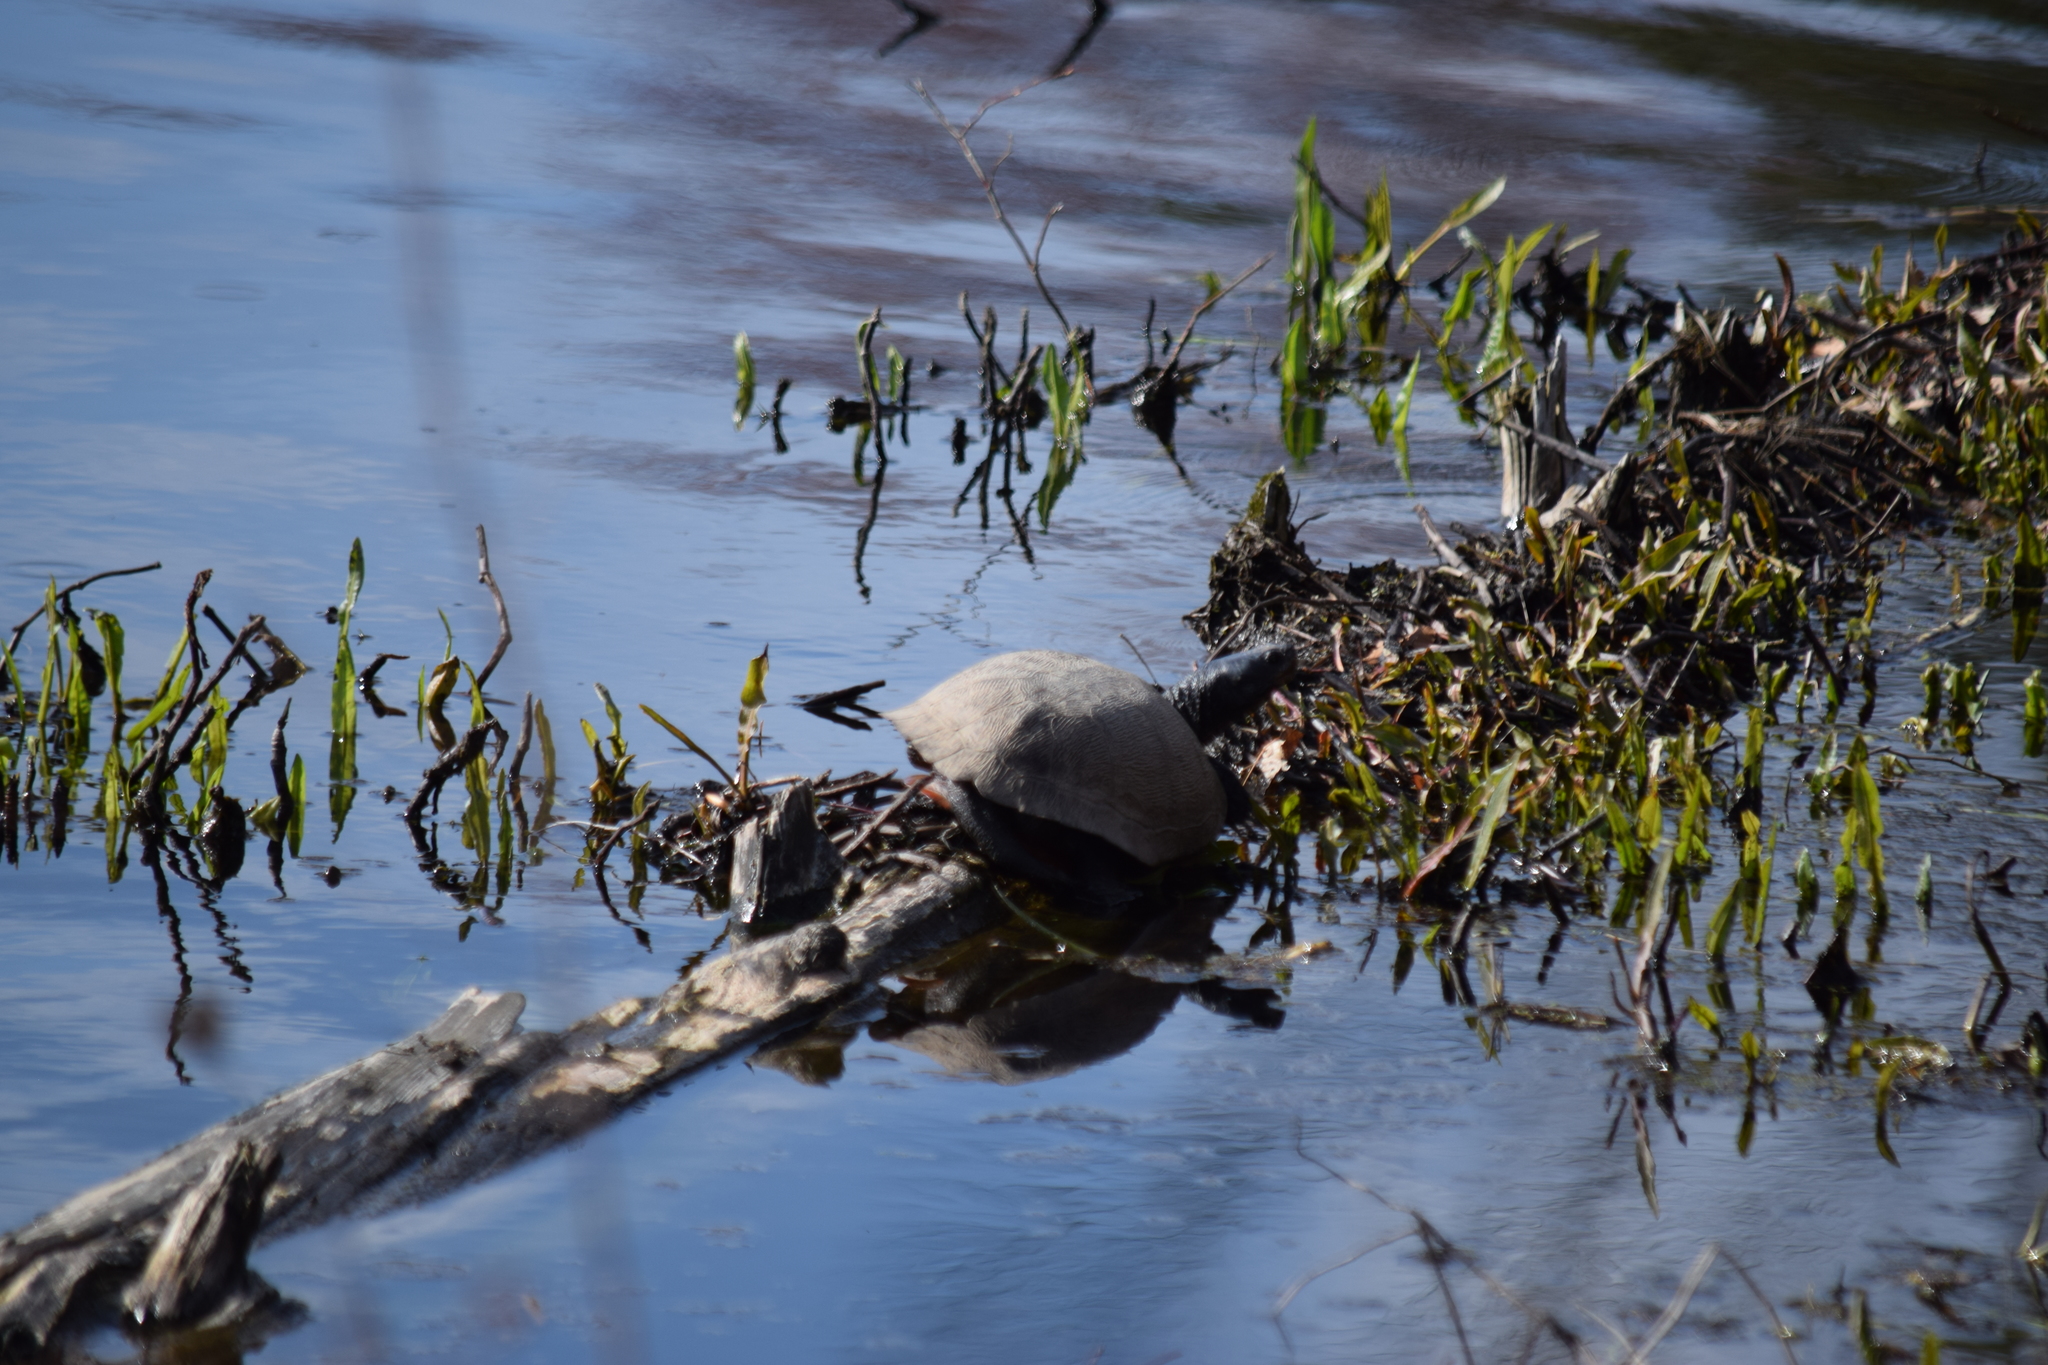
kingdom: Animalia
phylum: Chordata
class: Testudines
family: Emydidae
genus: Pseudemys
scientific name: Pseudemys rubriventris
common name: American red-bellied turtle
